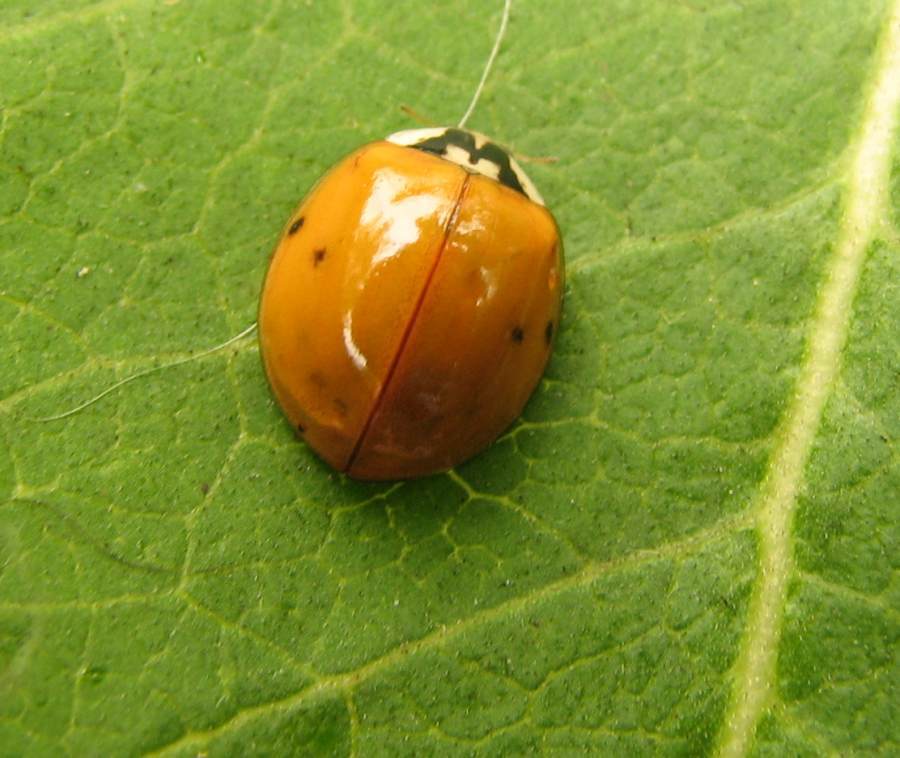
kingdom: Animalia
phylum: Arthropoda
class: Insecta
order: Coleoptera
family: Coccinellidae
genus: Harmonia
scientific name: Harmonia axyridis
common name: Harlequin ladybird
